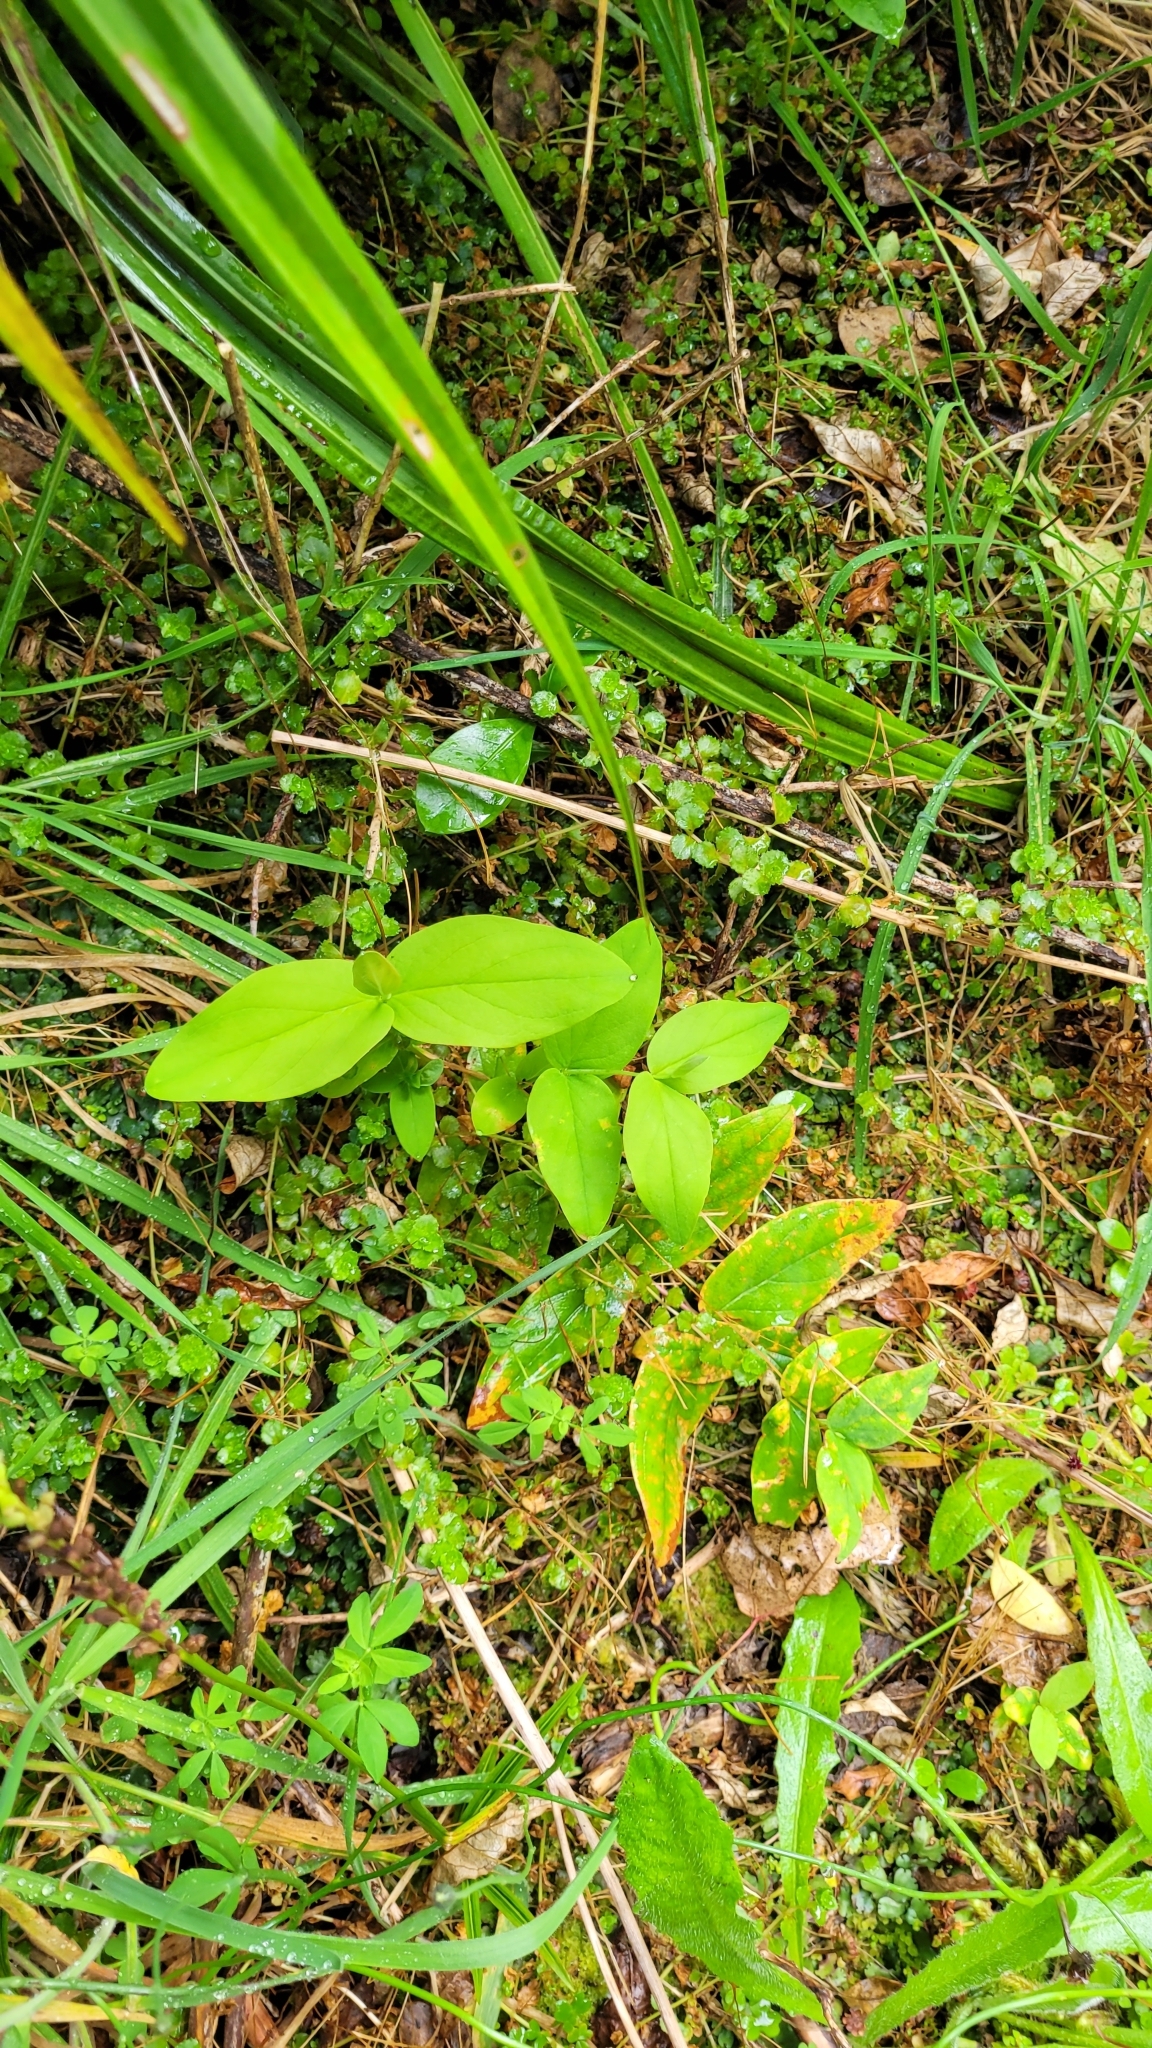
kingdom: Plantae
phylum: Tracheophyta
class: Magnoliopsida
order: Malpighiales
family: Hypericaceae
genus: Hypericum
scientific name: Hypericum androsaemum
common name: Sweet-amber
